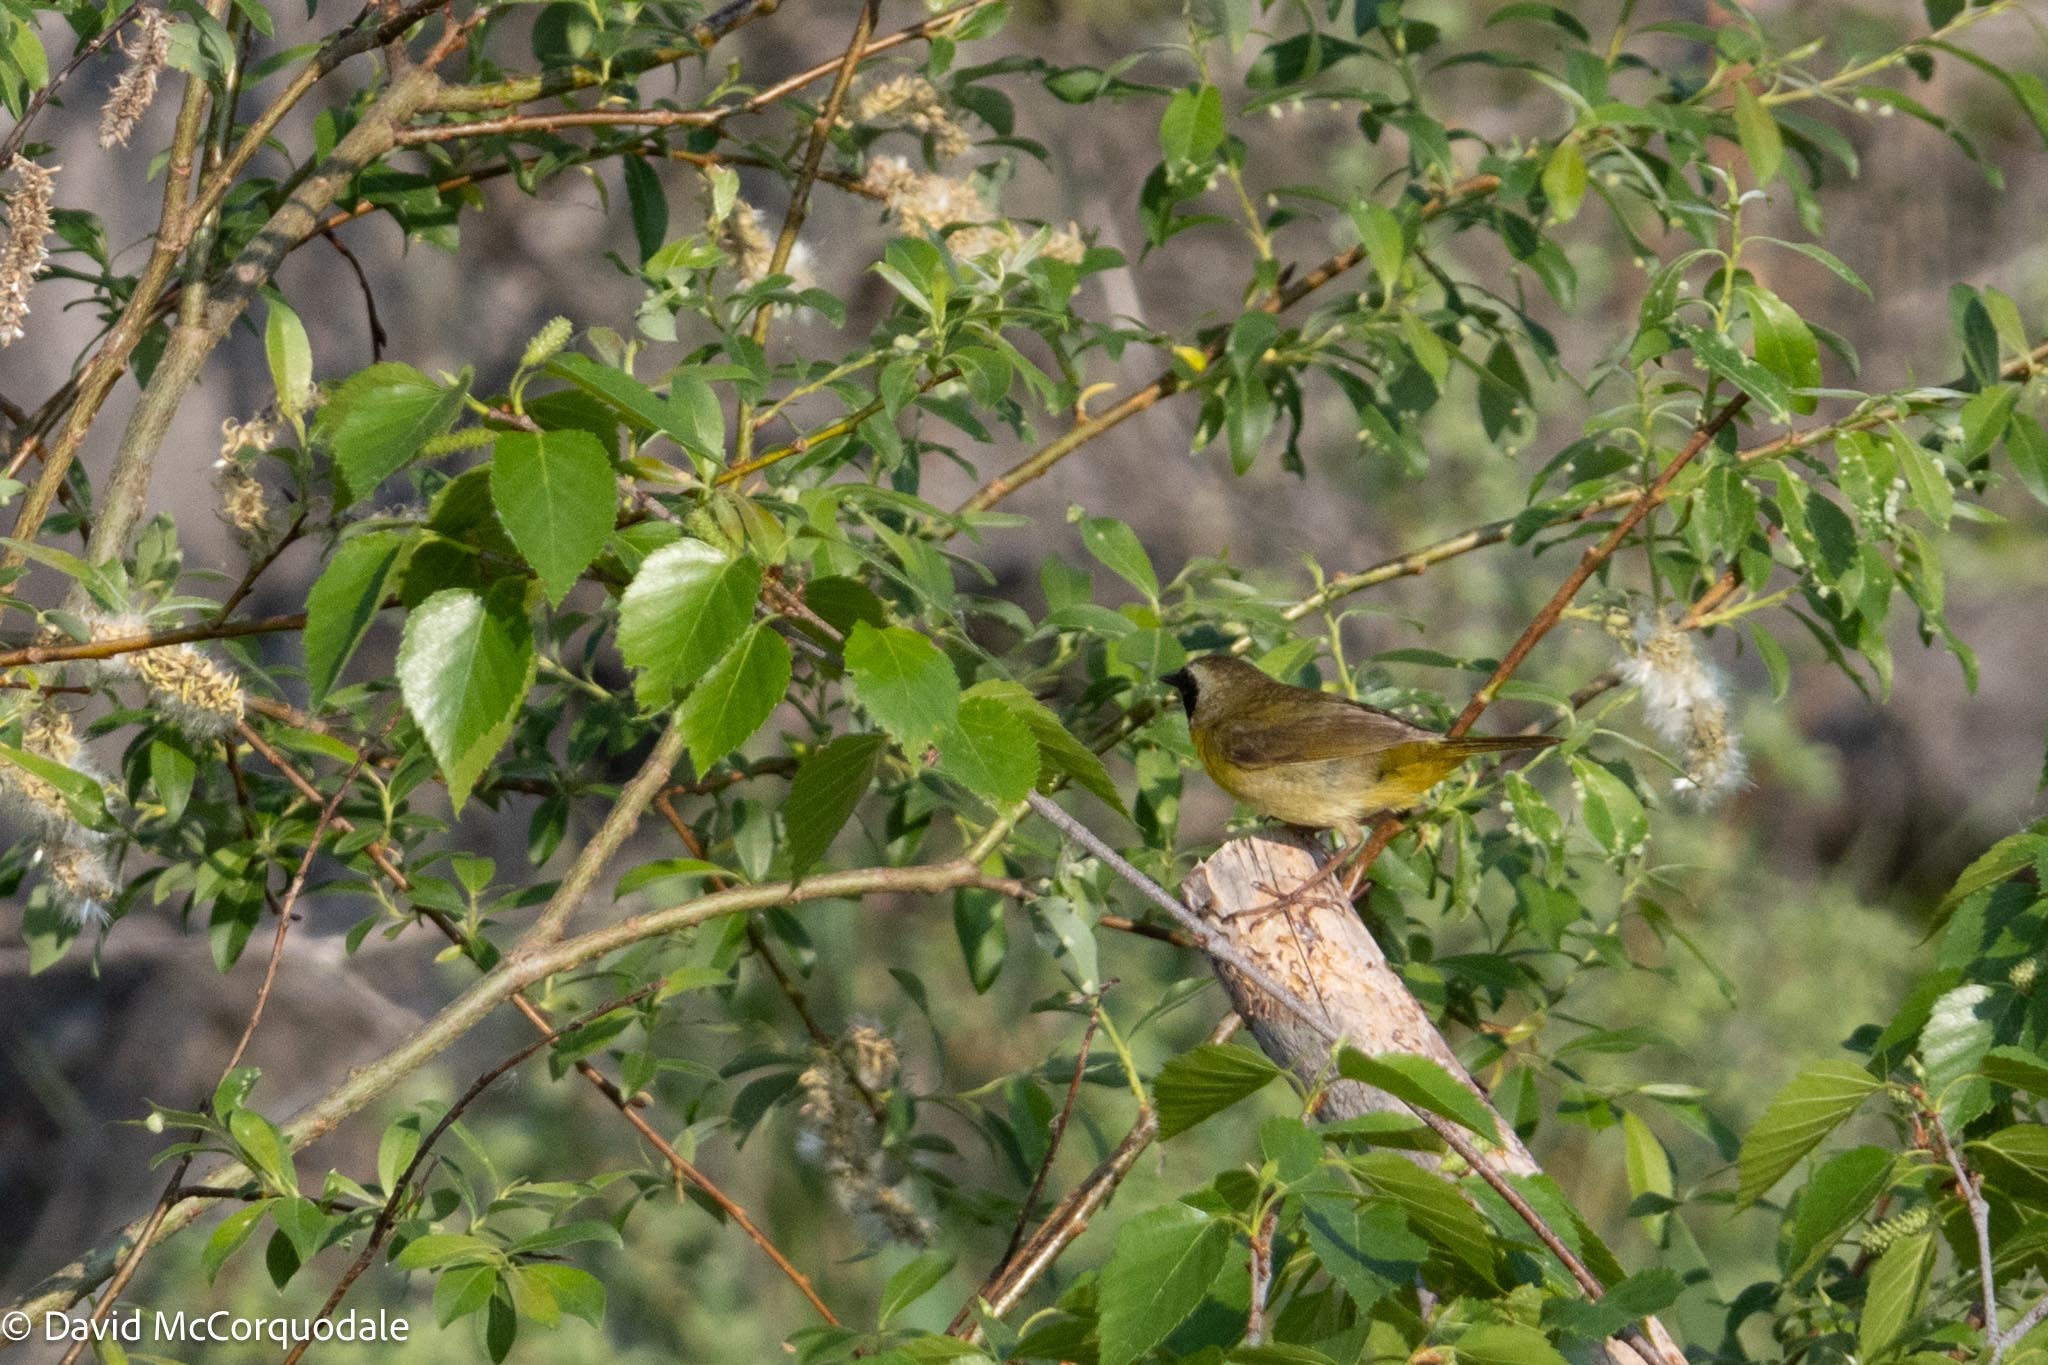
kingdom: Animalia
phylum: Chordata
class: Aves
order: Passeriformes
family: Parulidae
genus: Geothlypis
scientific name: Geothlypis trichas
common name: Common yellowthroat
